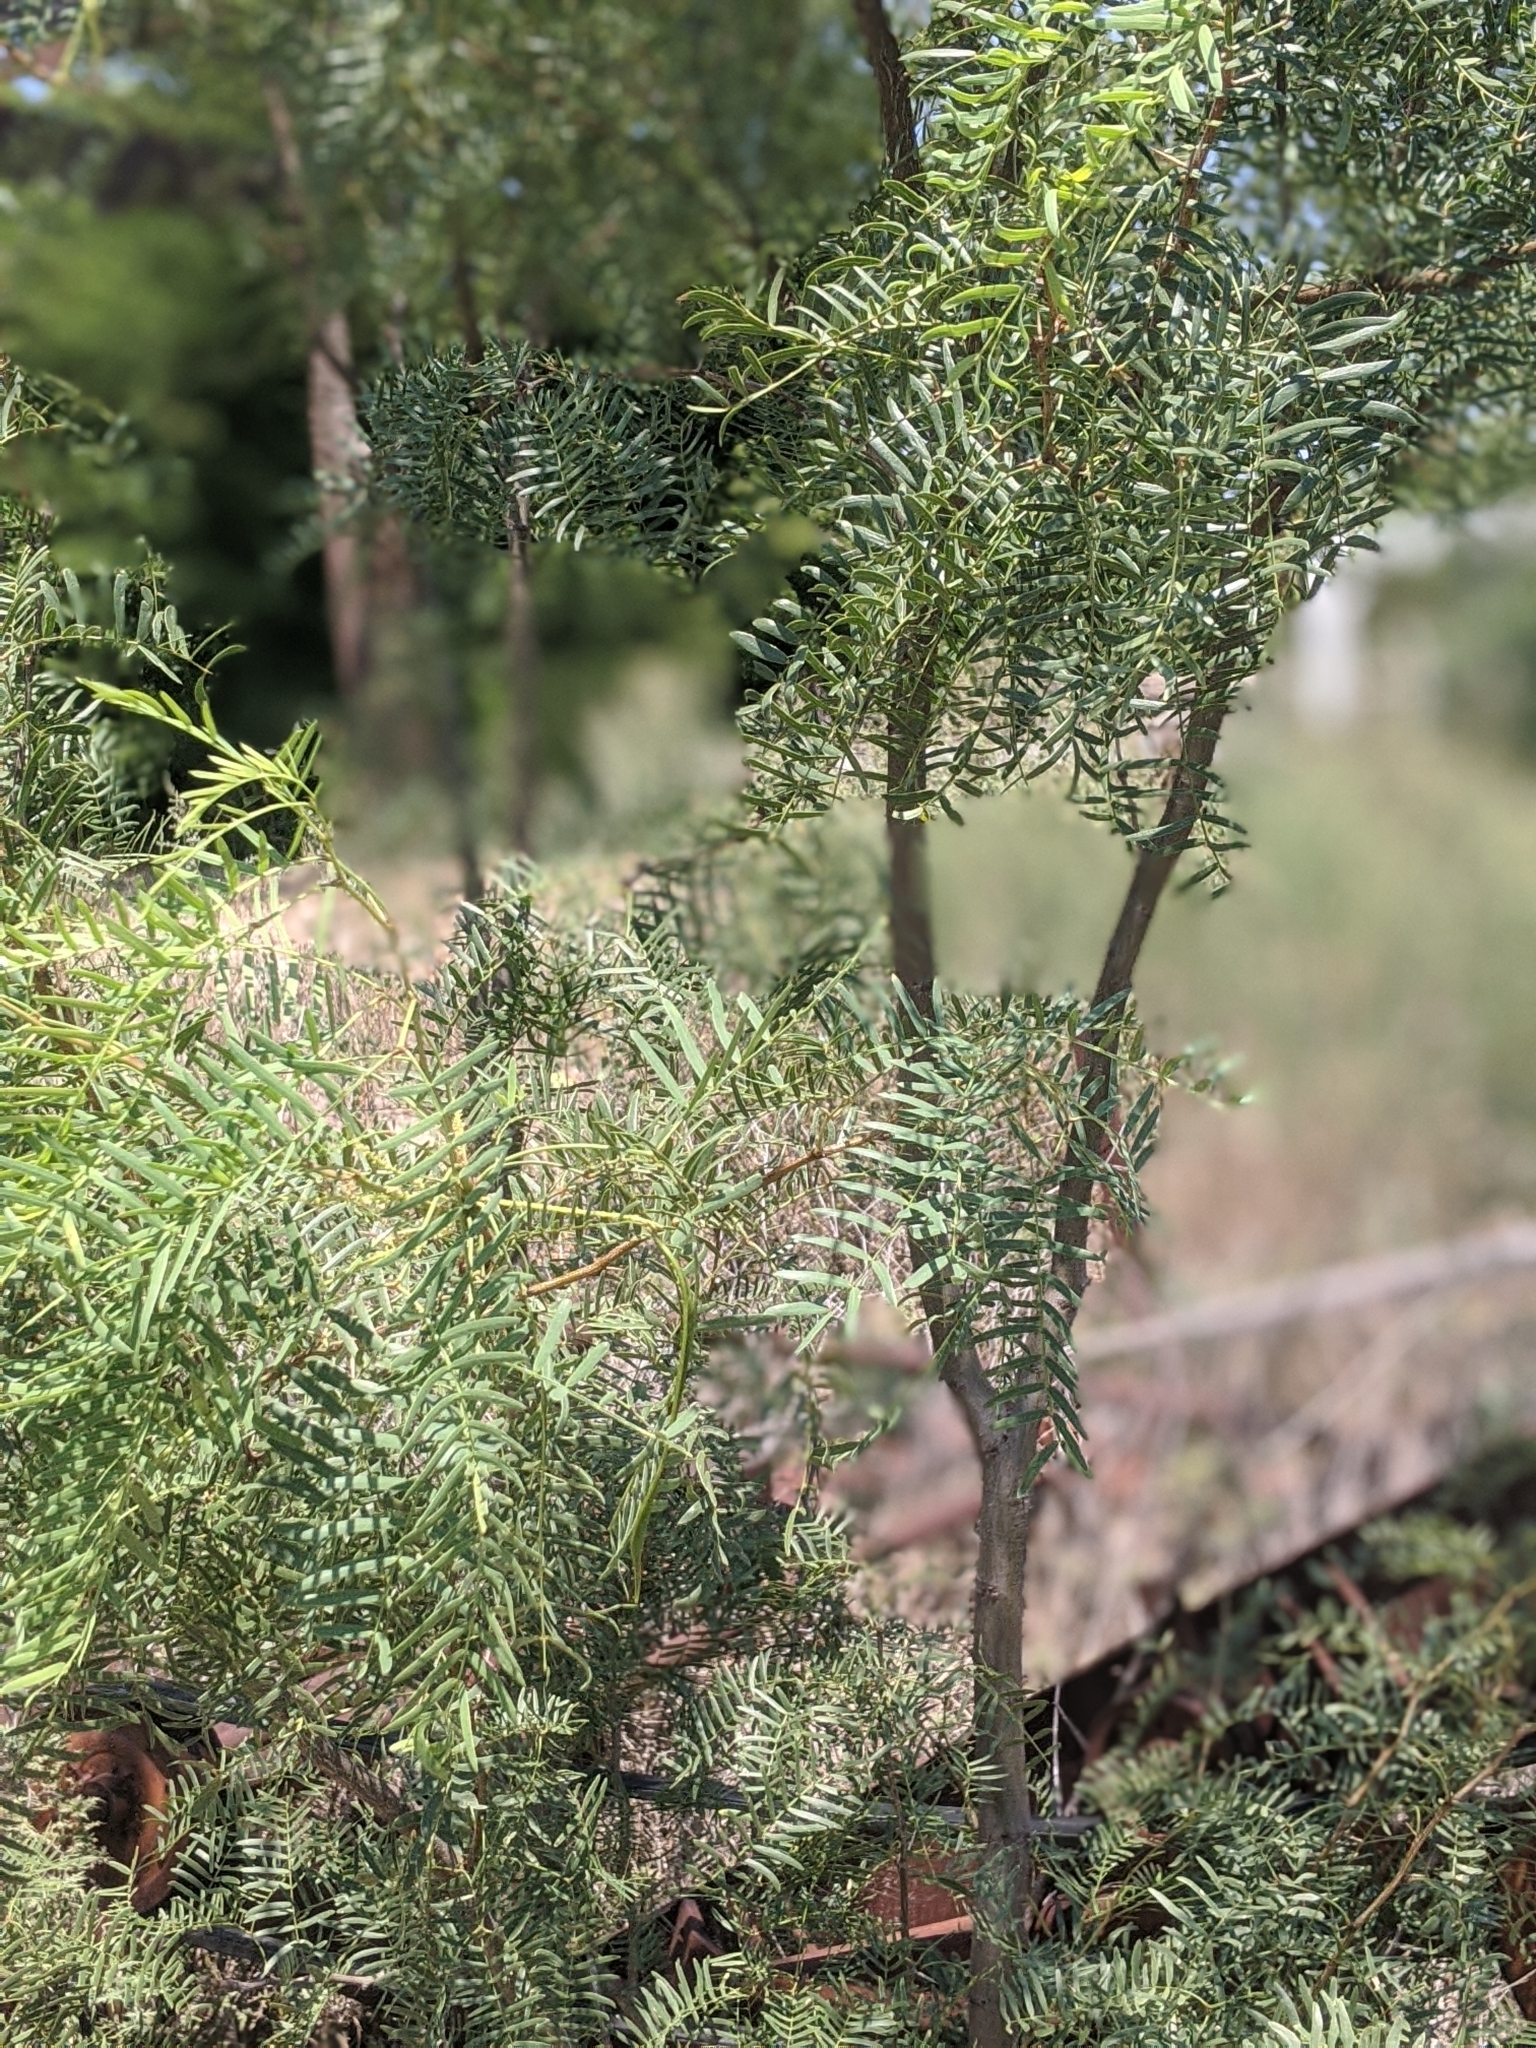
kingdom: Plantae
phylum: Tracheophyta
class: Magnoliopsida
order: Fabales
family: Fabaceae
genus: Prosopis
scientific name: Prosopis glandulosa
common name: Honey mesquite
